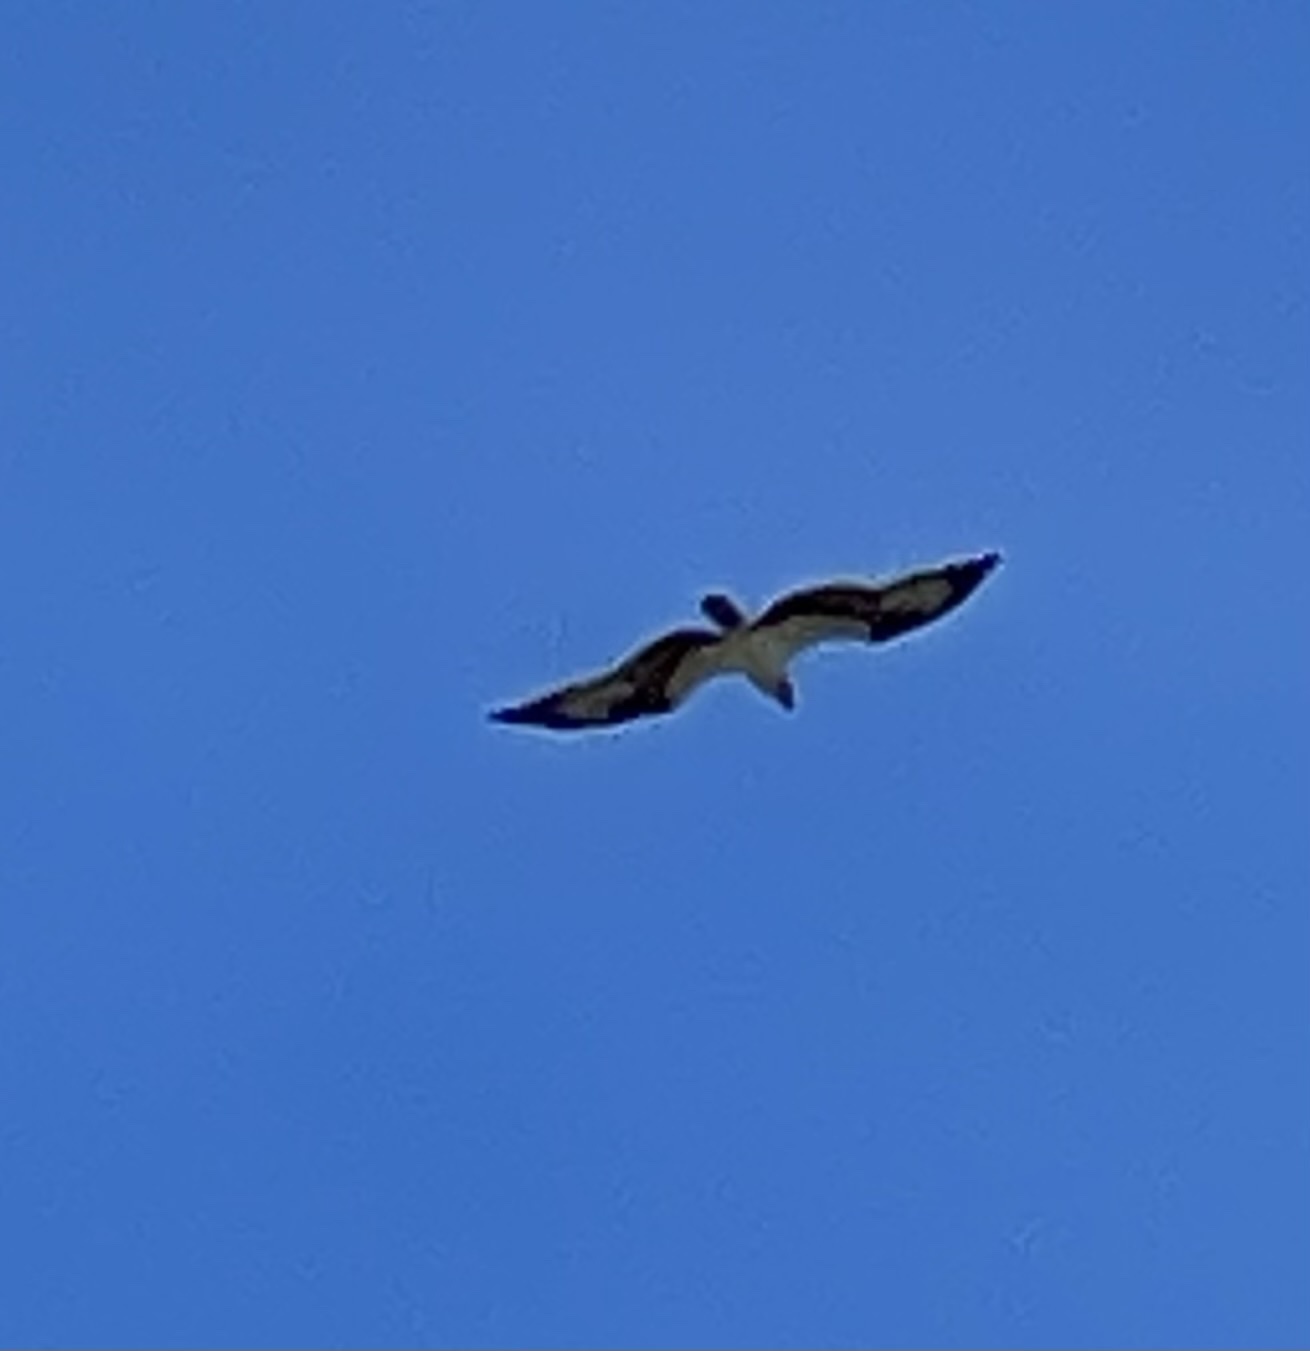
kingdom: Animalia
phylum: Chordata
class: Aves
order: Accipitriformes
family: Pandionidae
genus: Pandion
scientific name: Pandion haliaetus
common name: Osprey
